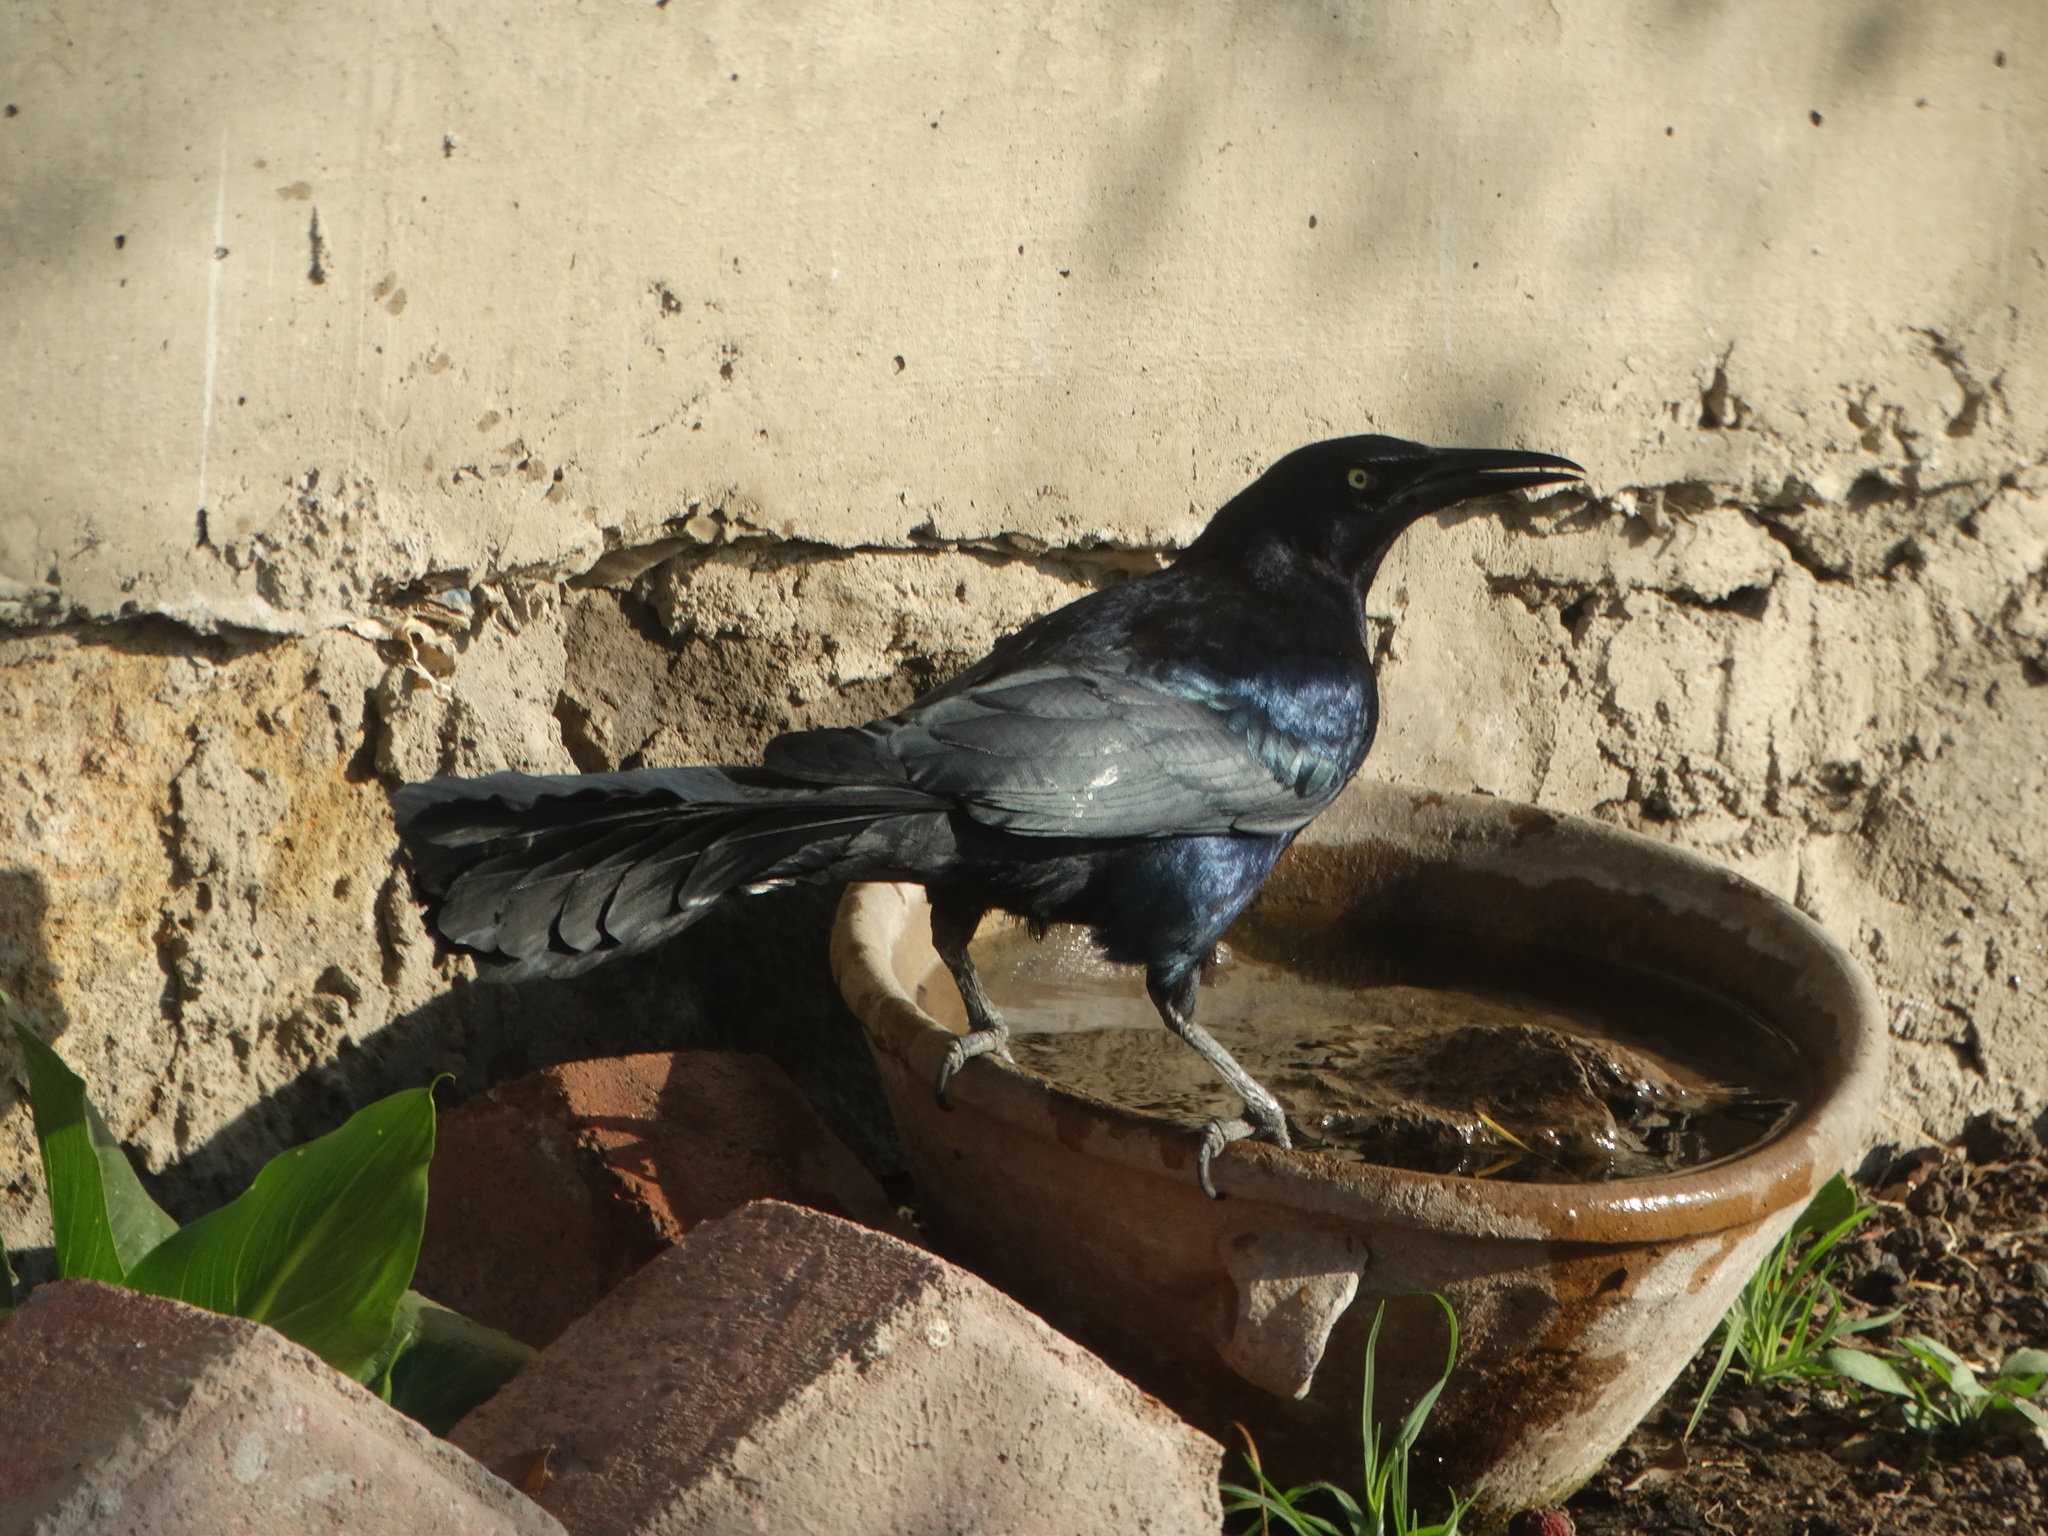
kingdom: Animalia
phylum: Chordata
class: Aves
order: Passeriformes
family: Icteridae
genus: Quiscalus
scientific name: Quiscalus mexicanus
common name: Great-tailed grackle
